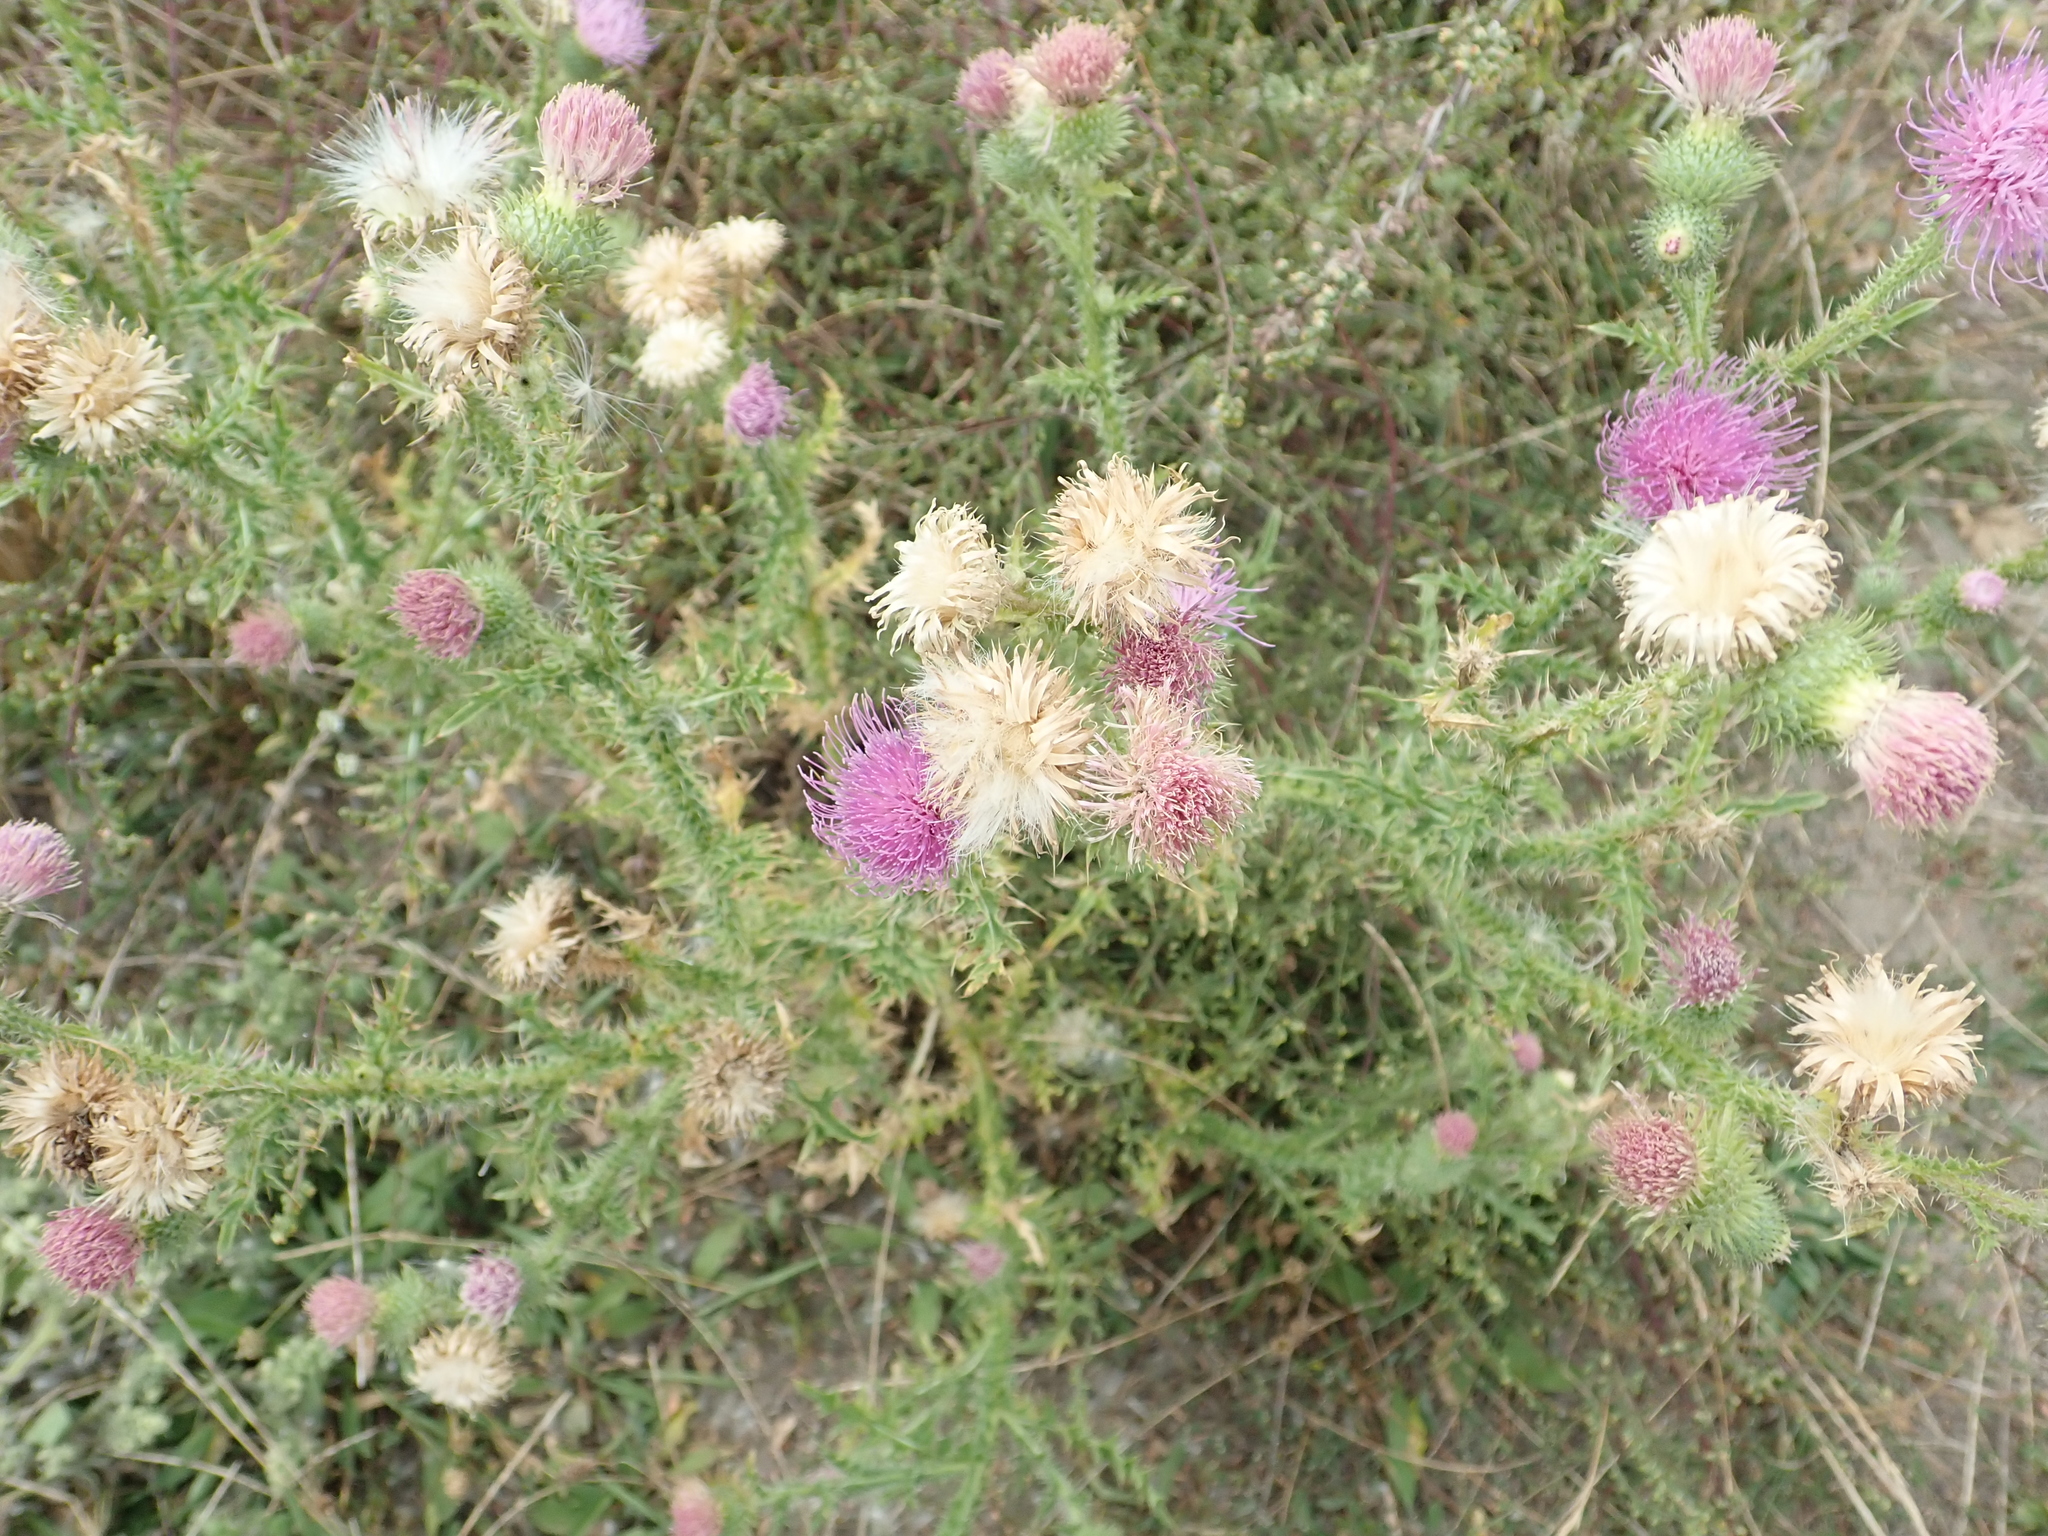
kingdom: Plantae
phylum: Tracheophyta
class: Magnoliopsida
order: Asterales
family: Asteraceae
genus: Carduus
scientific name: Carduus acanthoides
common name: Plumeless thistle
